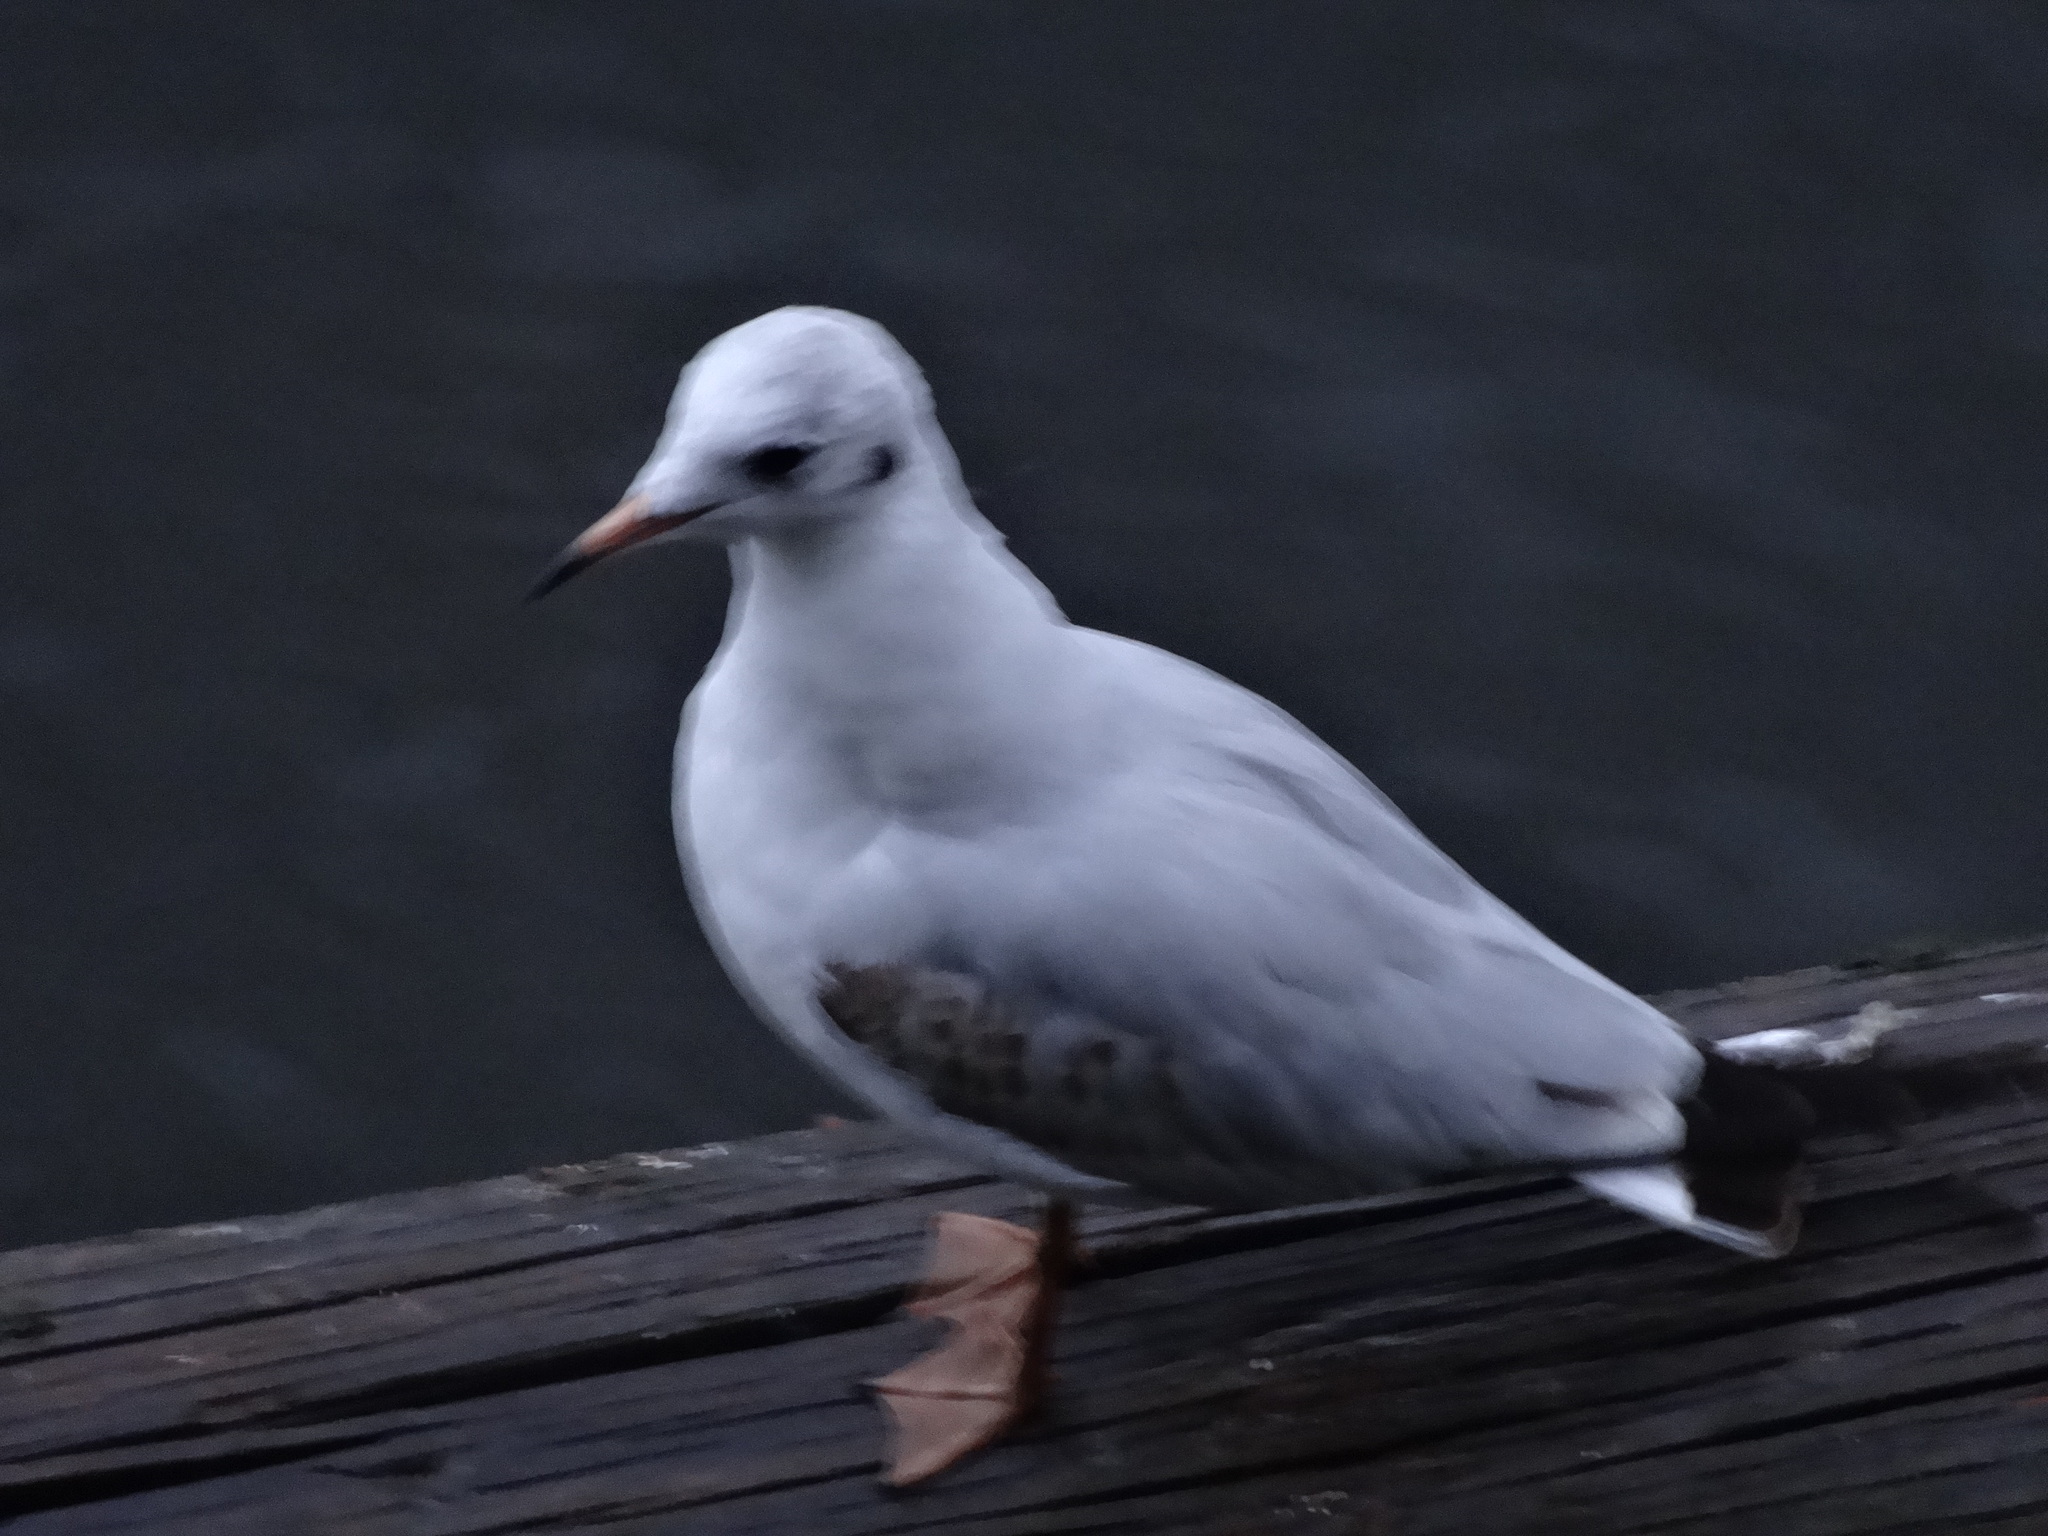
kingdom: Animalia
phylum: Chordata
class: Aves
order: Charadriiformes
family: Laridae
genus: Chroicocephalus
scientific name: Chroicocephalus ridibundus
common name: Black-headed gull
